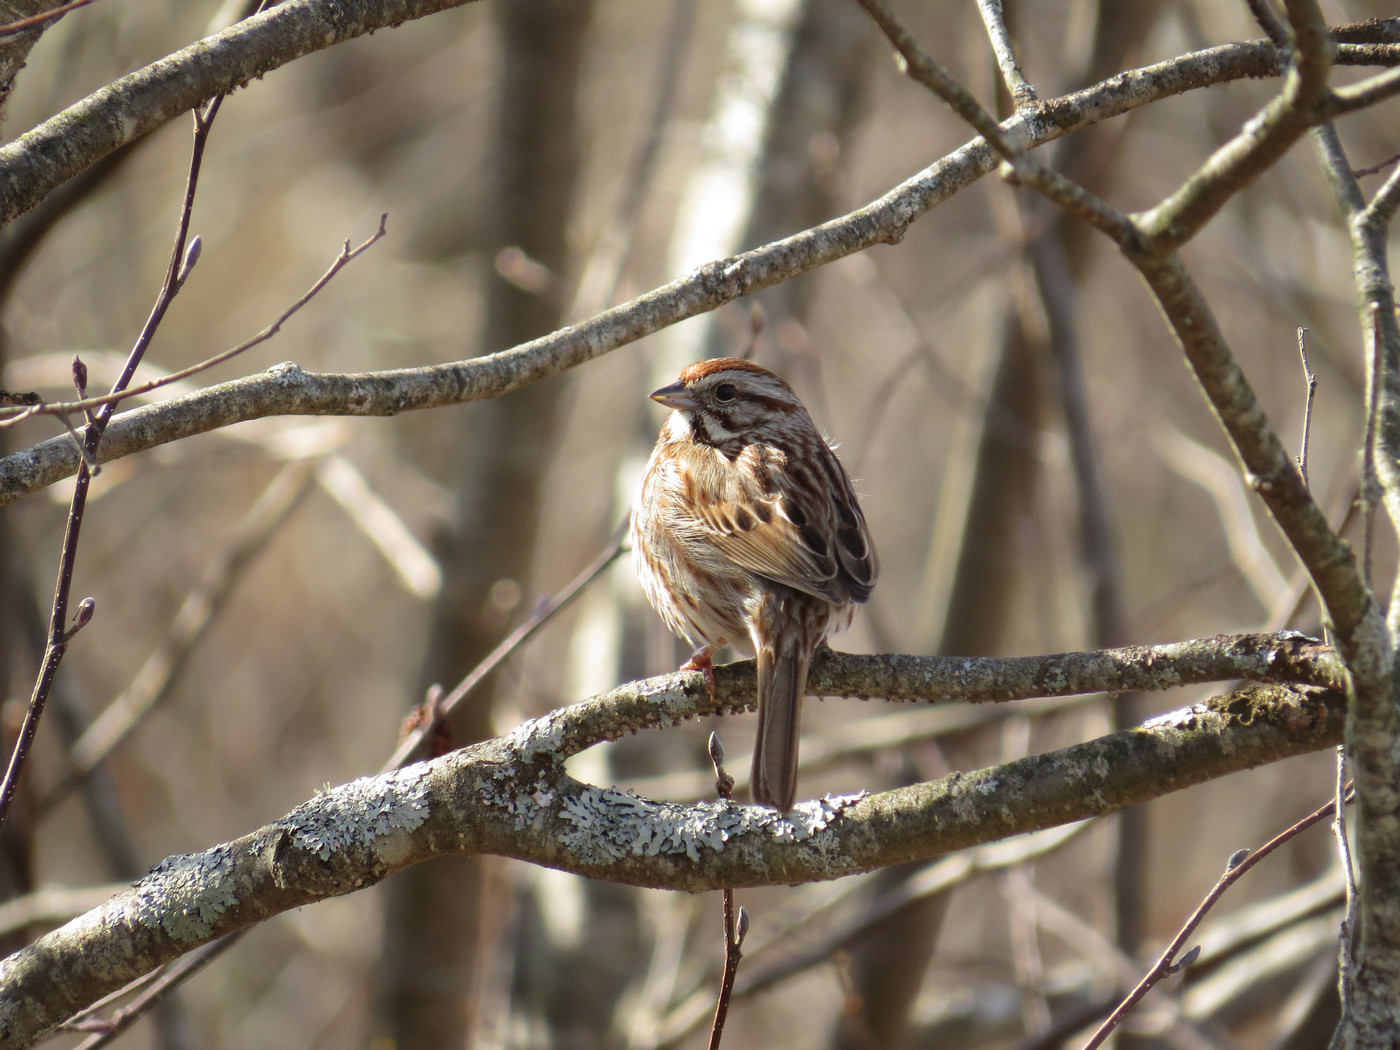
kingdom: Animalia
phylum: Chordata
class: Aves
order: Passeriformes
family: Passerellidae
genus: Melospiza
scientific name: Melospiza melodia
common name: Song sparrow
